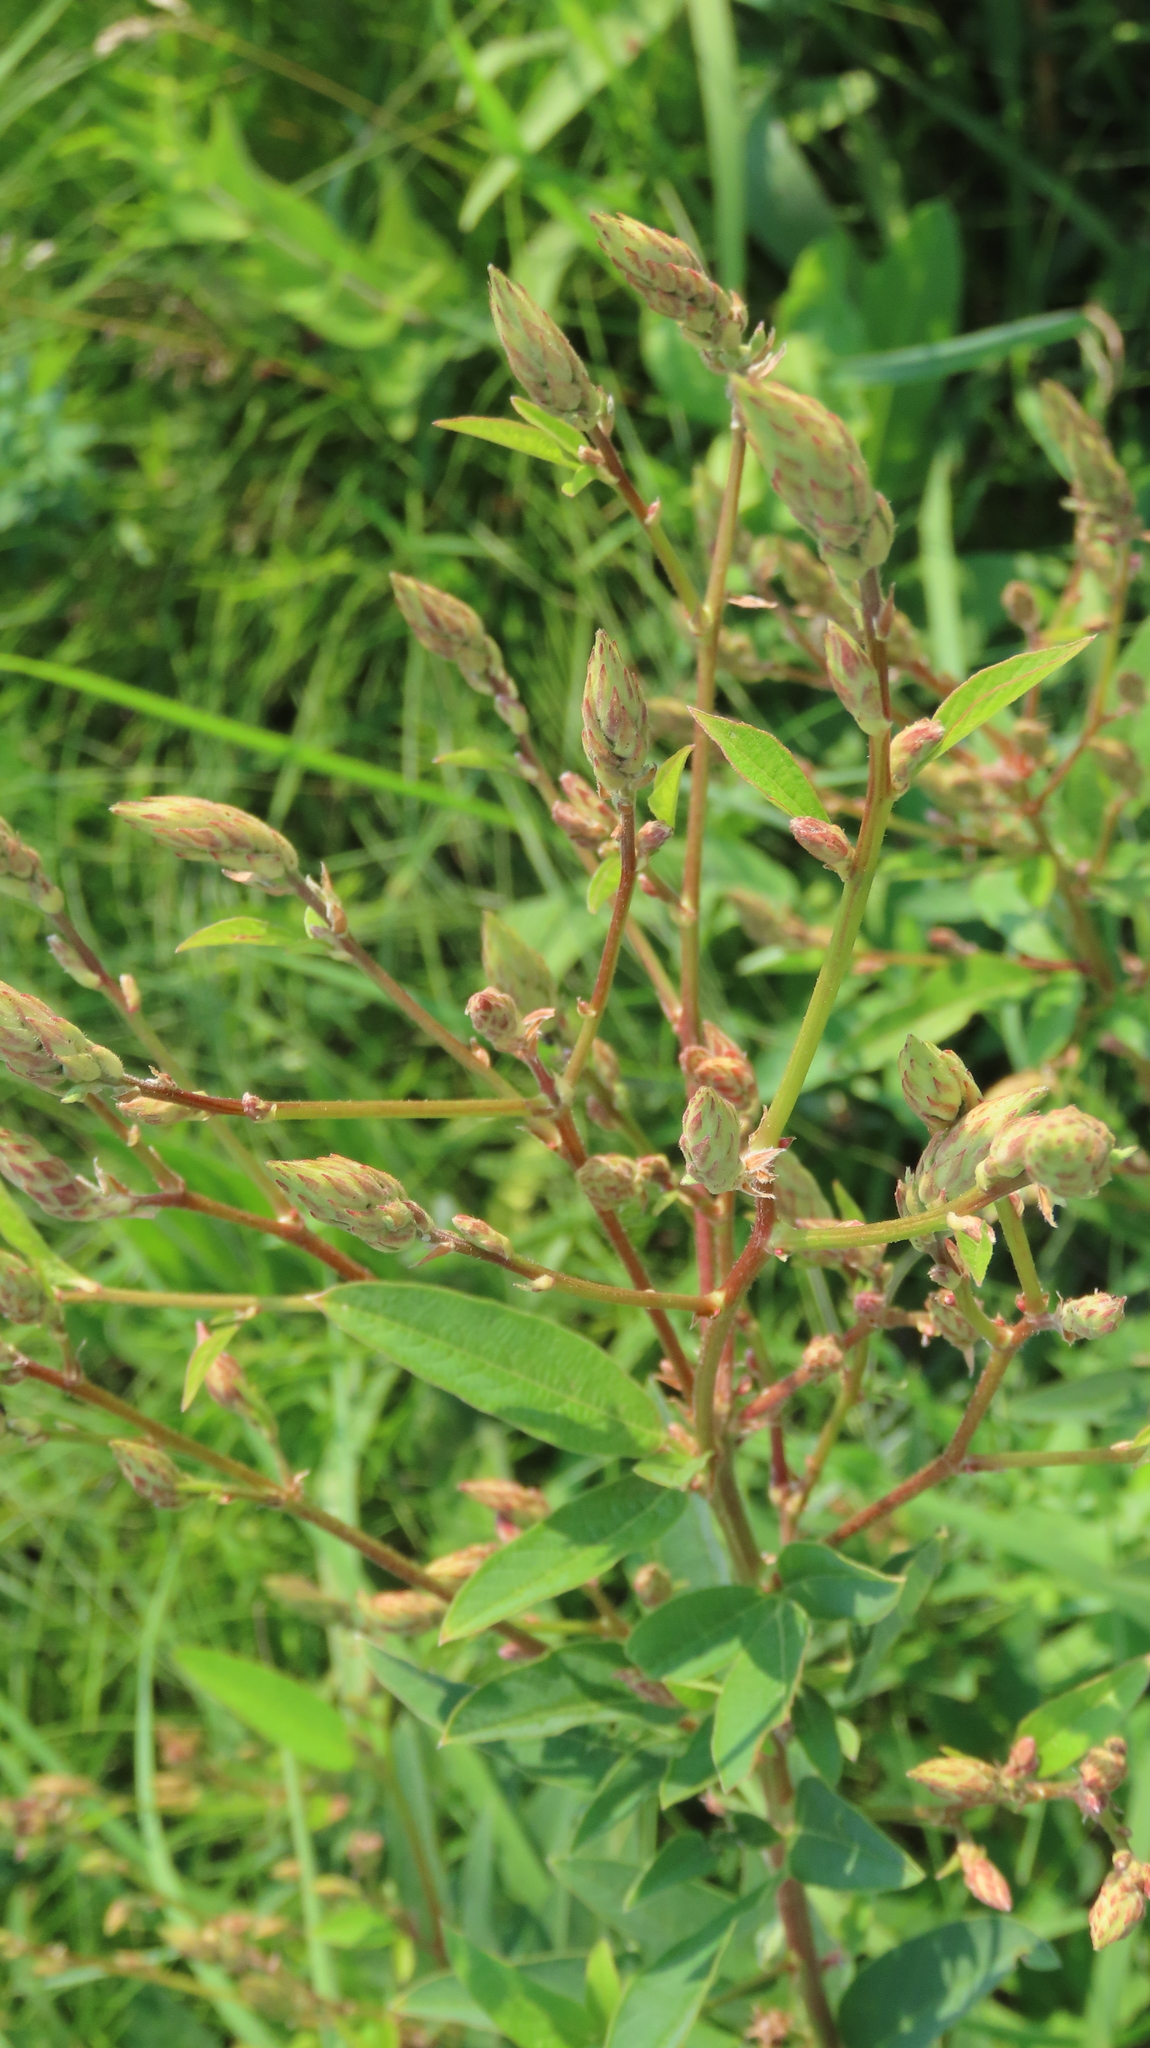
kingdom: Plantae
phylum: Tracheophyta
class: Magnoliopsida
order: Fabales
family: Fabaceae
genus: Desmodium
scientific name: Desmodium canadense
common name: Canada tick-trefoil
